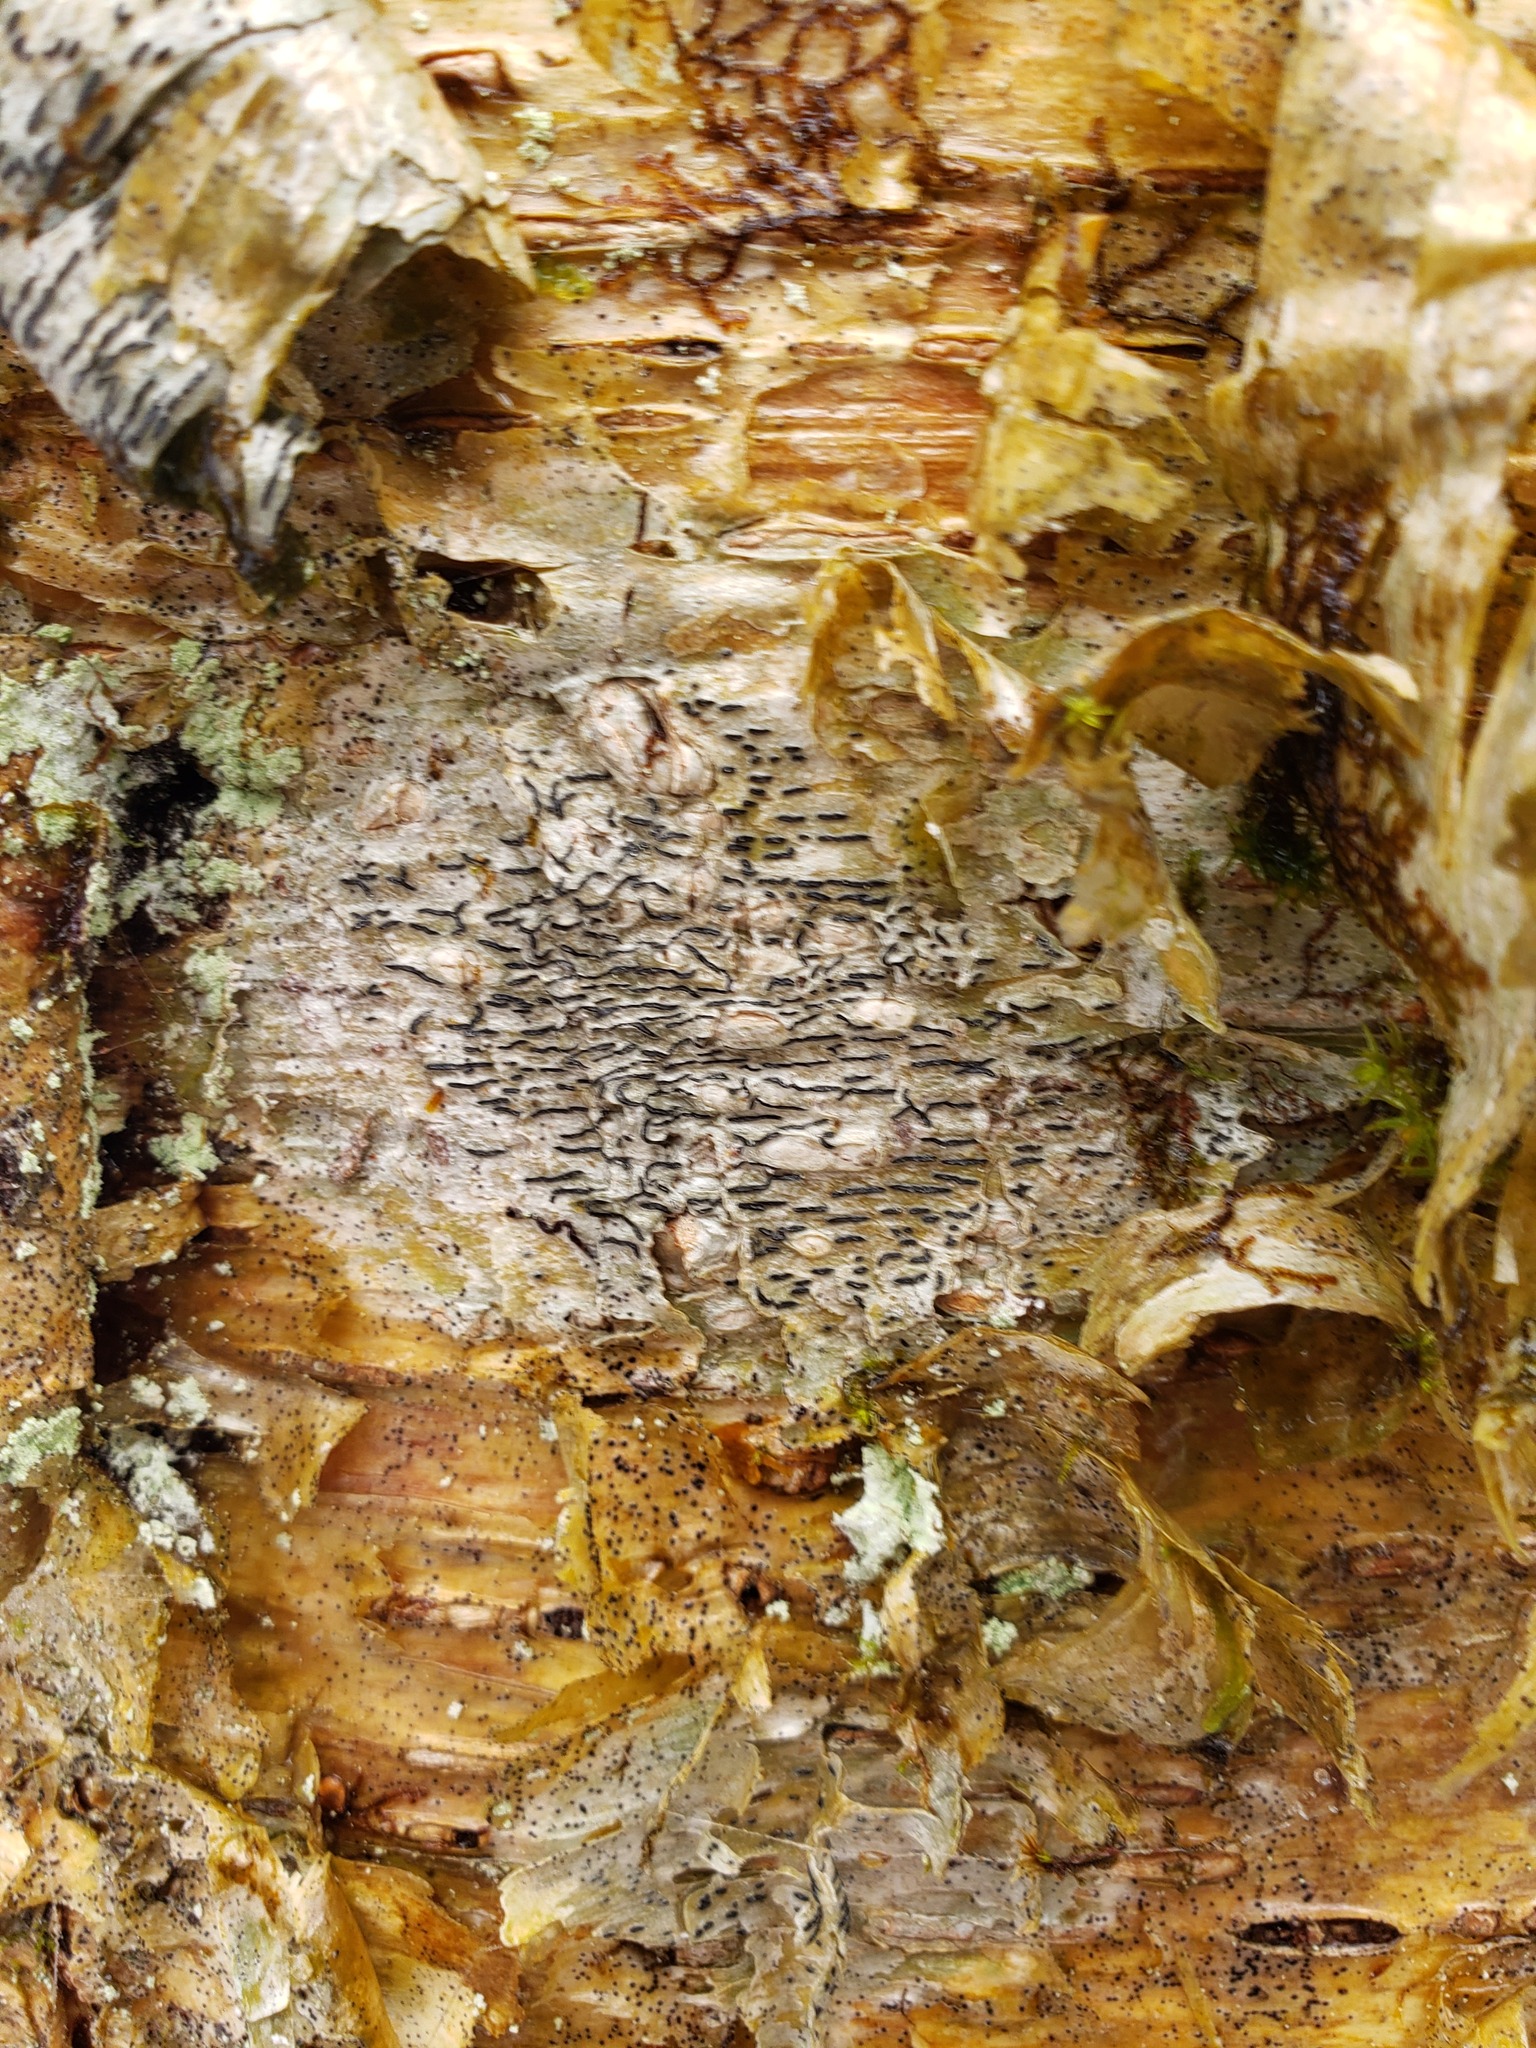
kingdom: Fungi
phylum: Ascomycota
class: Lecanoromycetes
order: Ostropales
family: Graphidaceae
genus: Graphis
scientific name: Graphis scripta
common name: Script lichen
